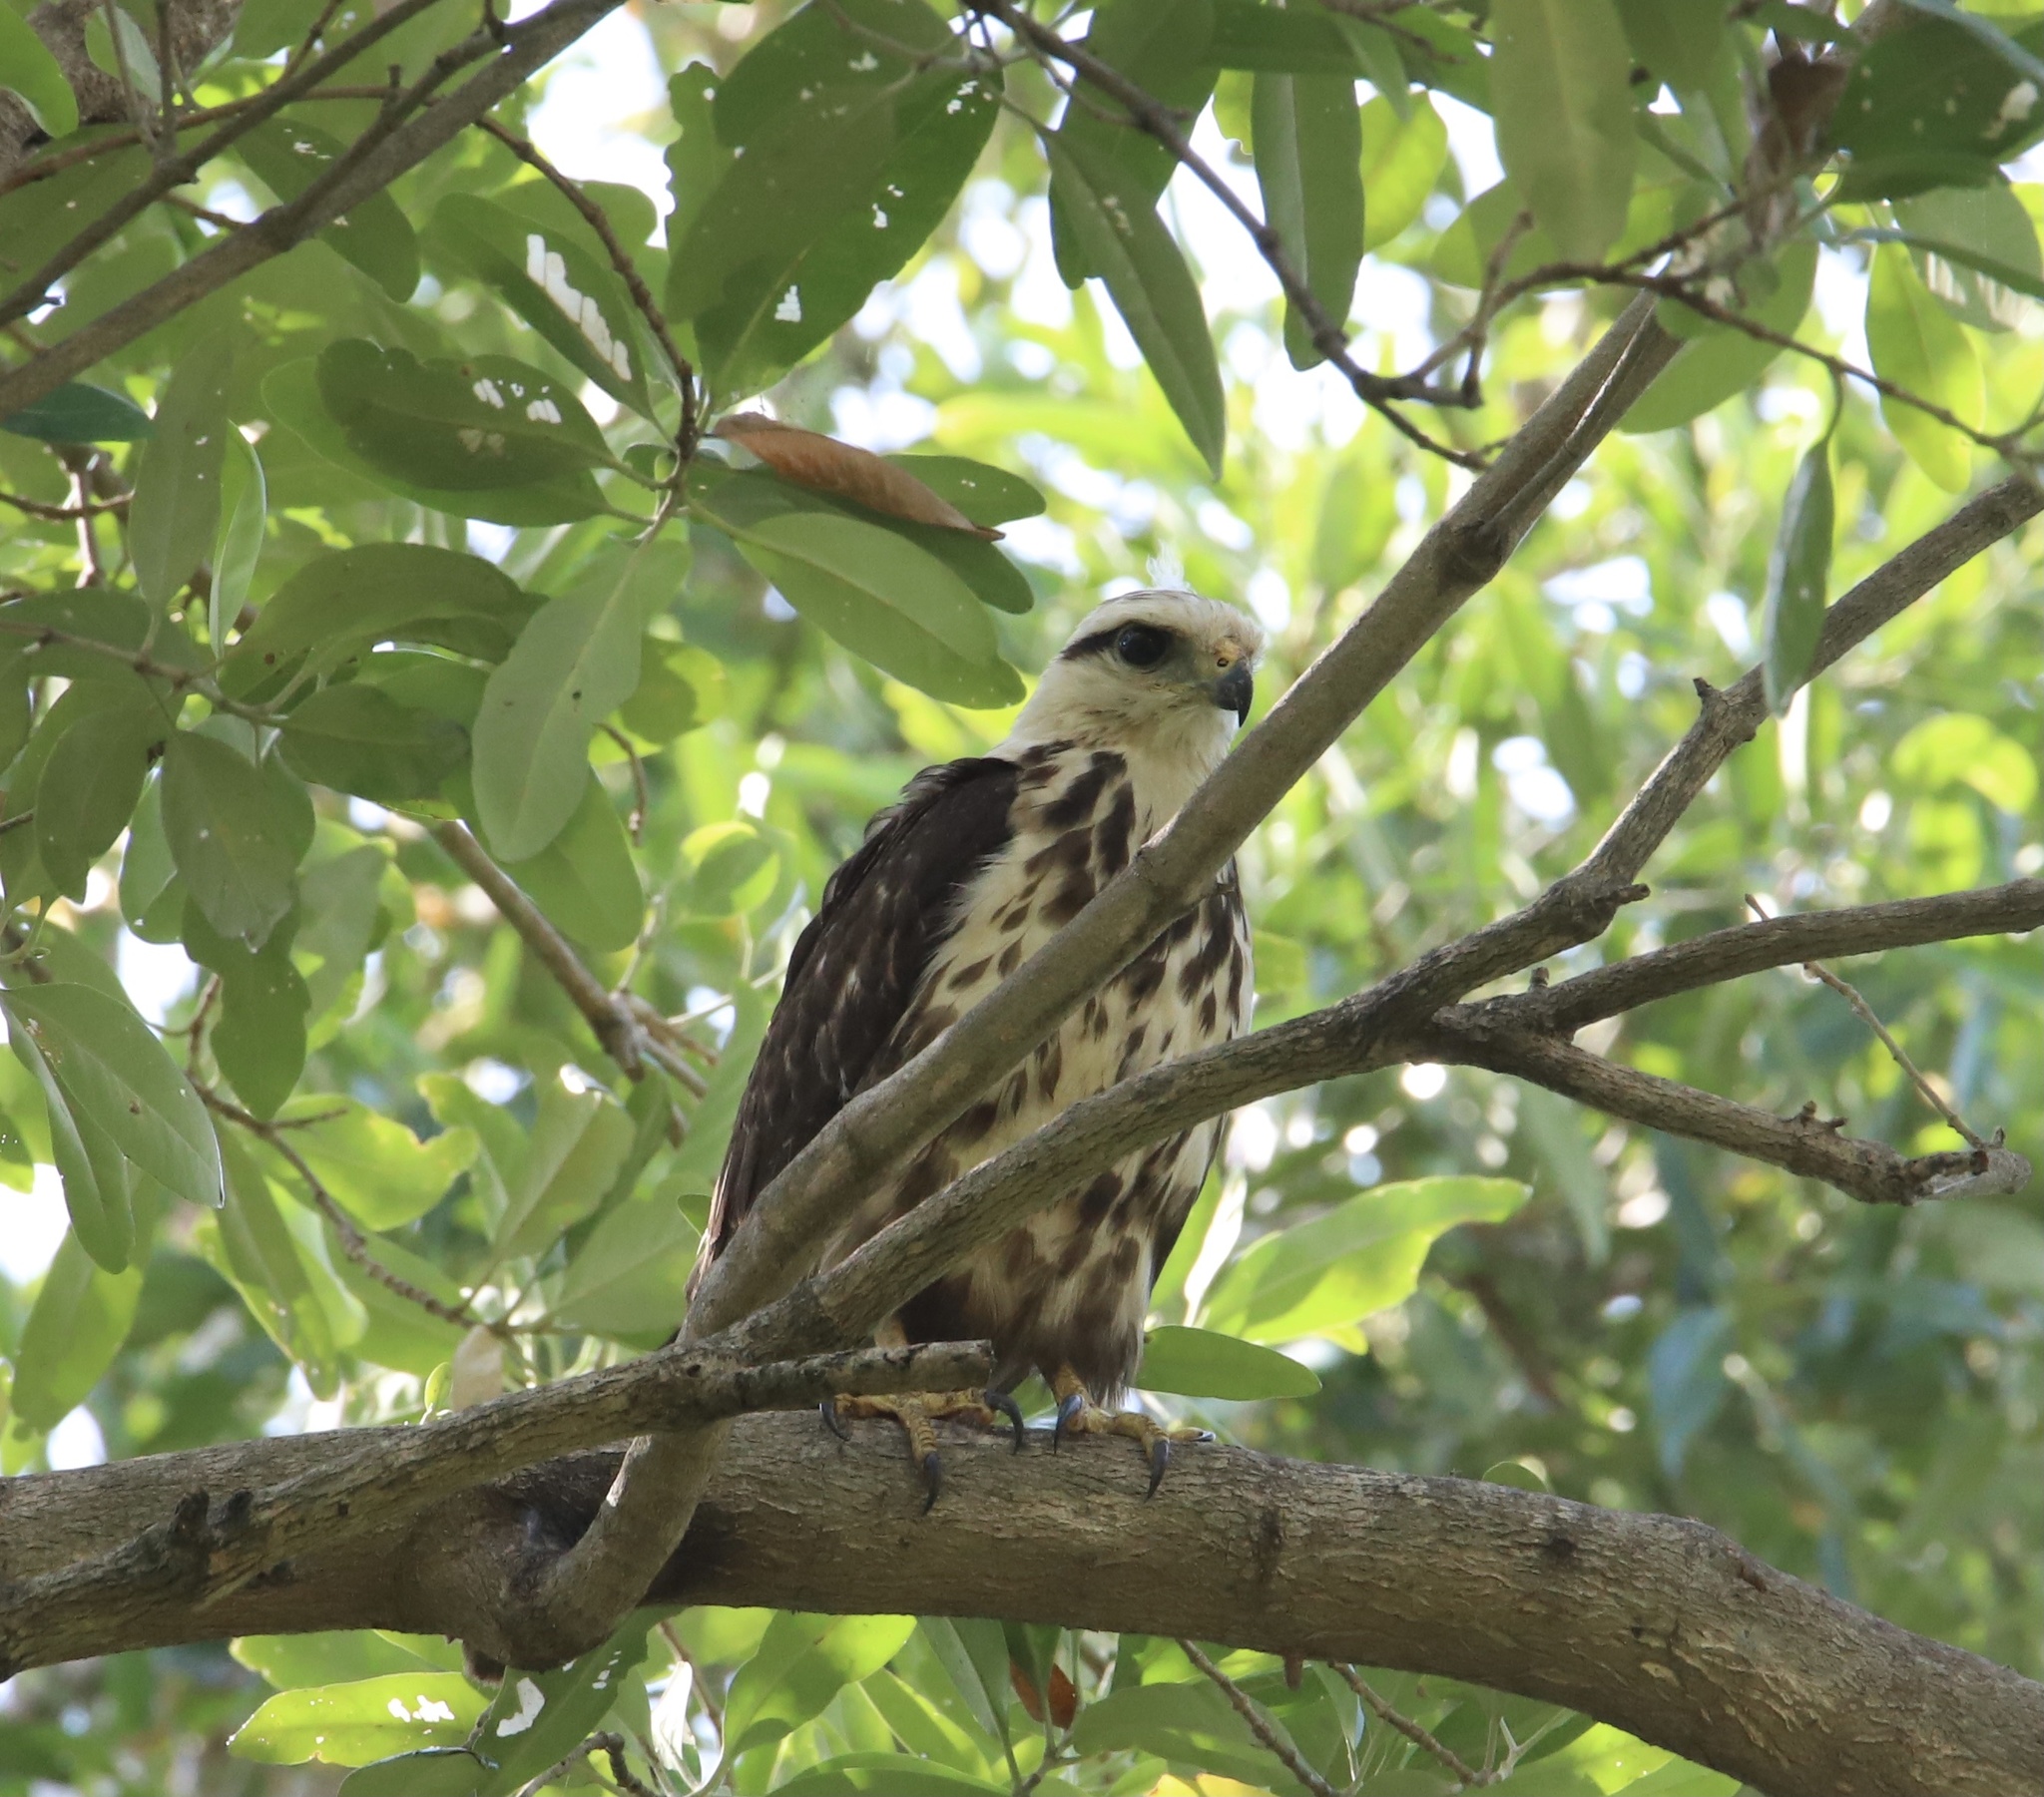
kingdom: Animalia
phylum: Chordata
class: Aves
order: Accipitriformes
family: Accipitridae
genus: Buteo
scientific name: Buteo nitidus
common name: Grey-lined hawk
